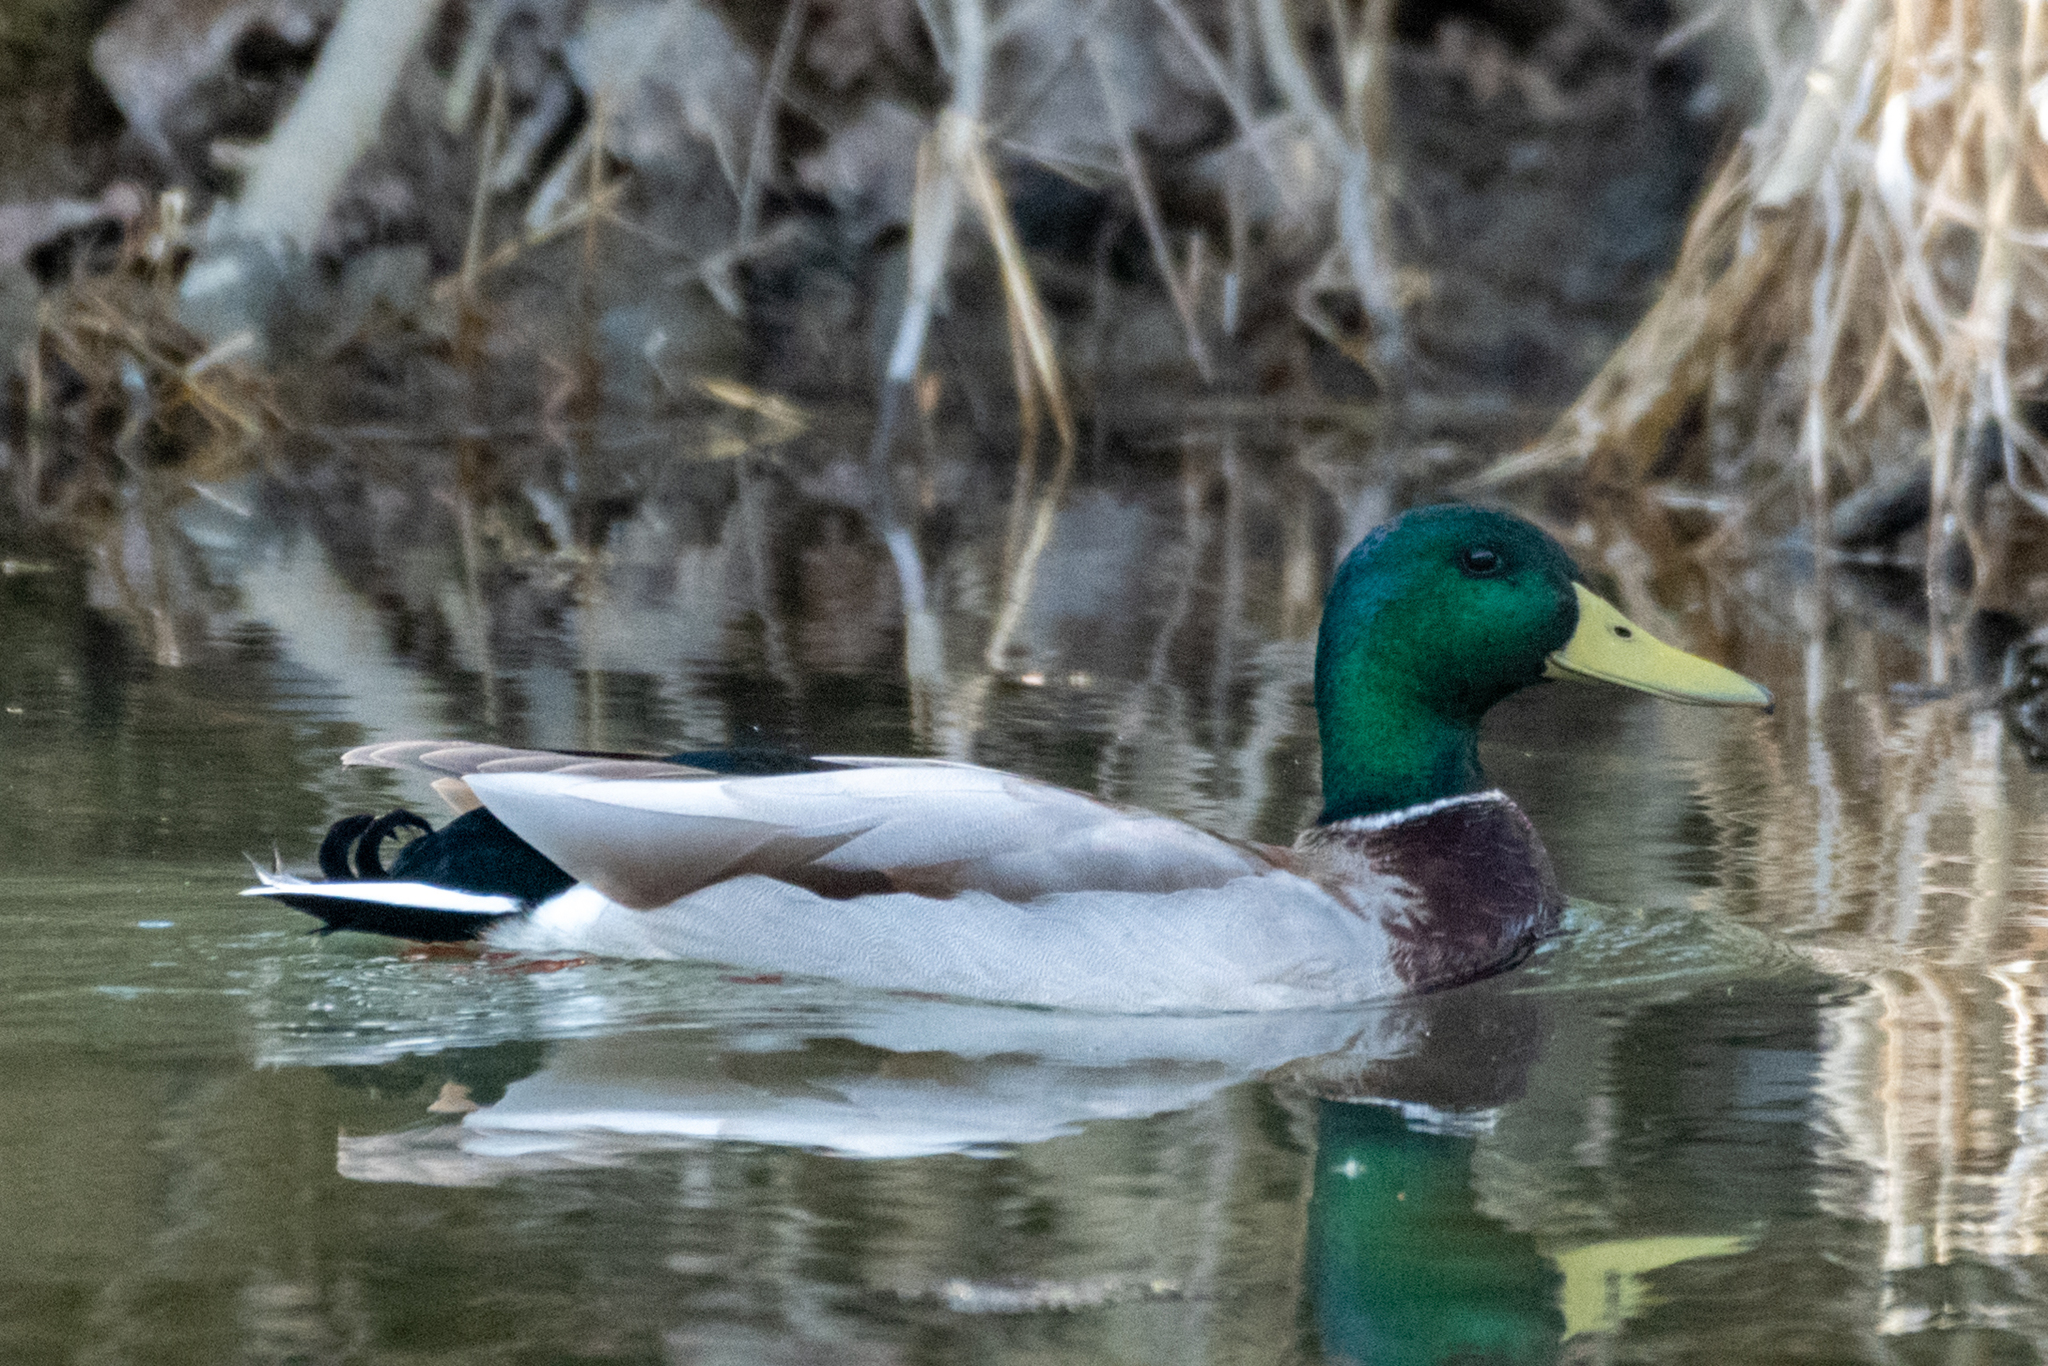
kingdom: Animalia
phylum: Chordata
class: Aves
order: Anseriformes
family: Anatidae
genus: Anas
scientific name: Anas platyrhynchos
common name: Mallard
